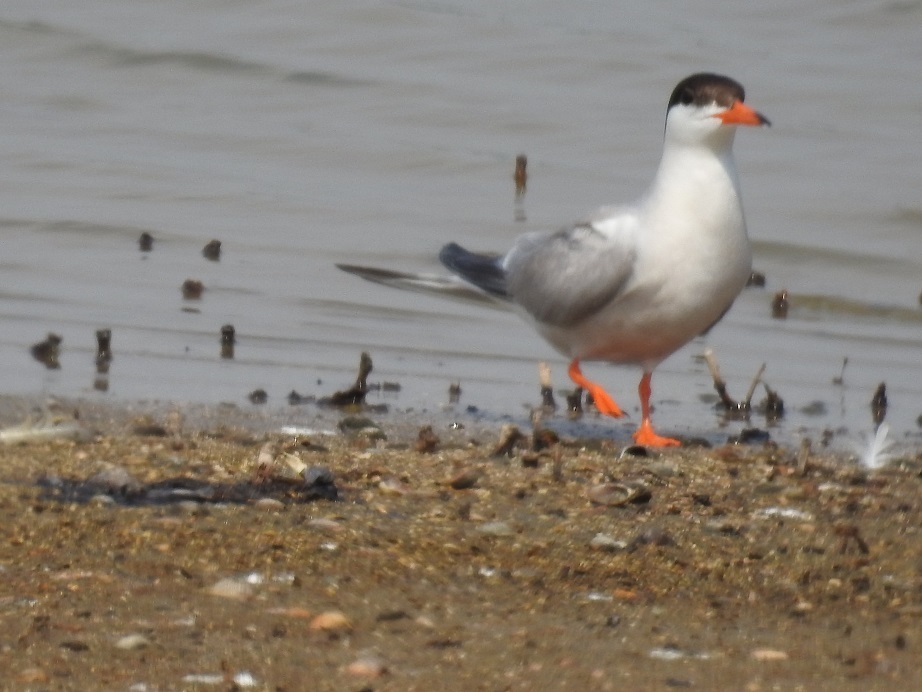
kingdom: Animalia
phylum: Chordata
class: Aves
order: Charadriiformes
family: Laridae
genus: Sterna
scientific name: Sterna hirundo
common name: Common tern
